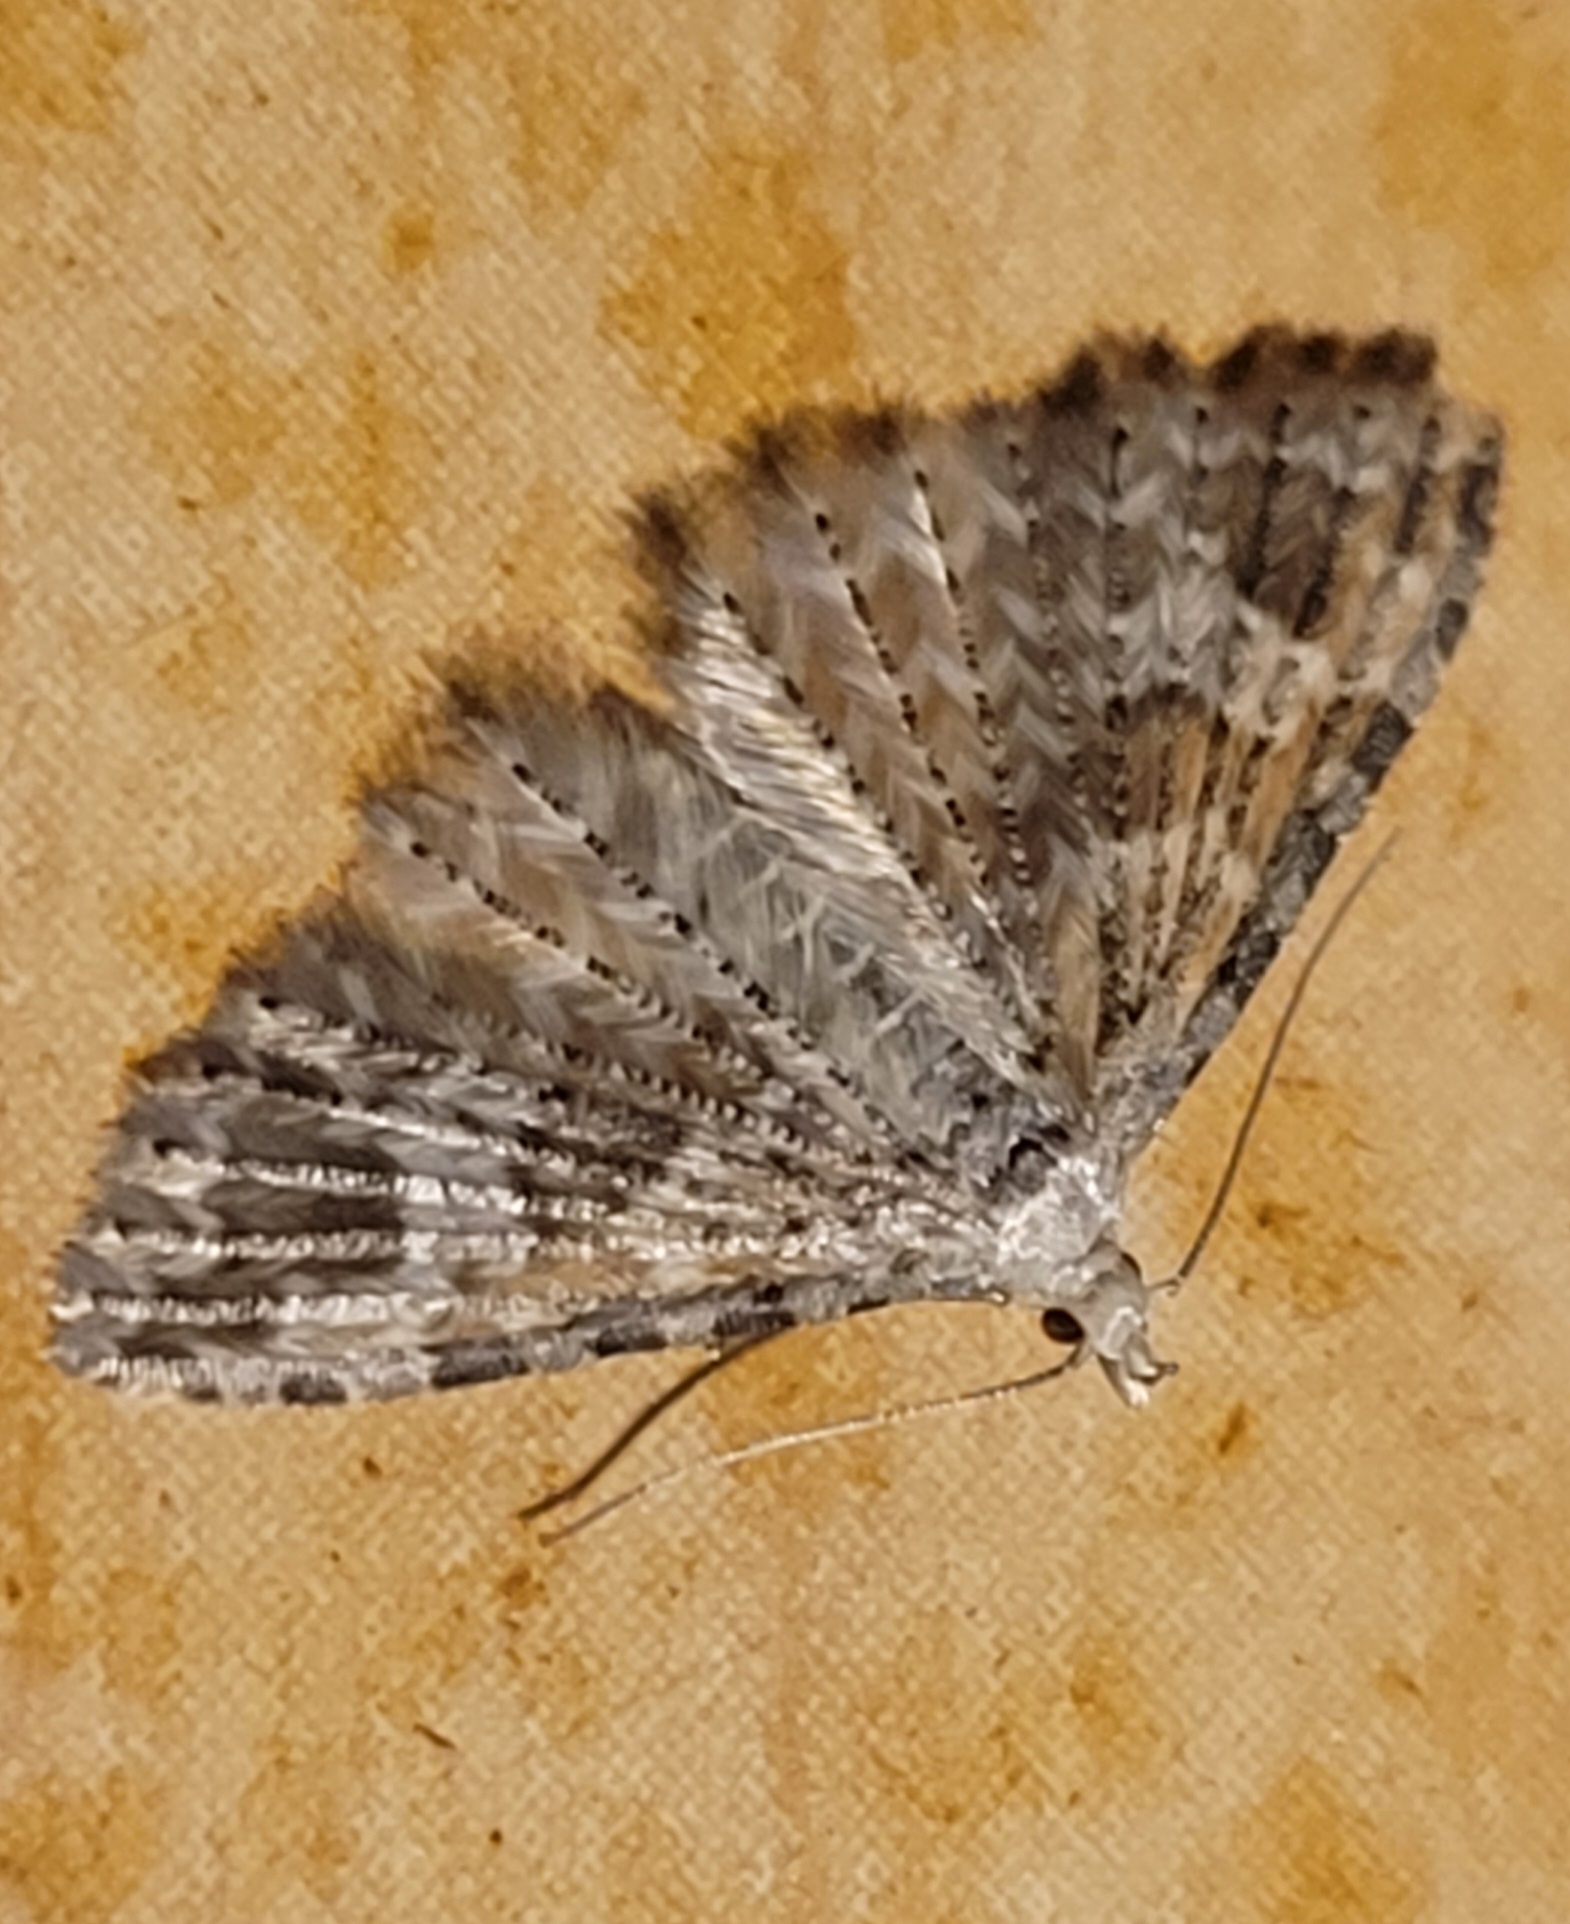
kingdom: Animalia
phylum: Arthropoda
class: Insecta
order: Lepidoptera
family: Alucitidae
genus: Alucita
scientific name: Alucita montana
